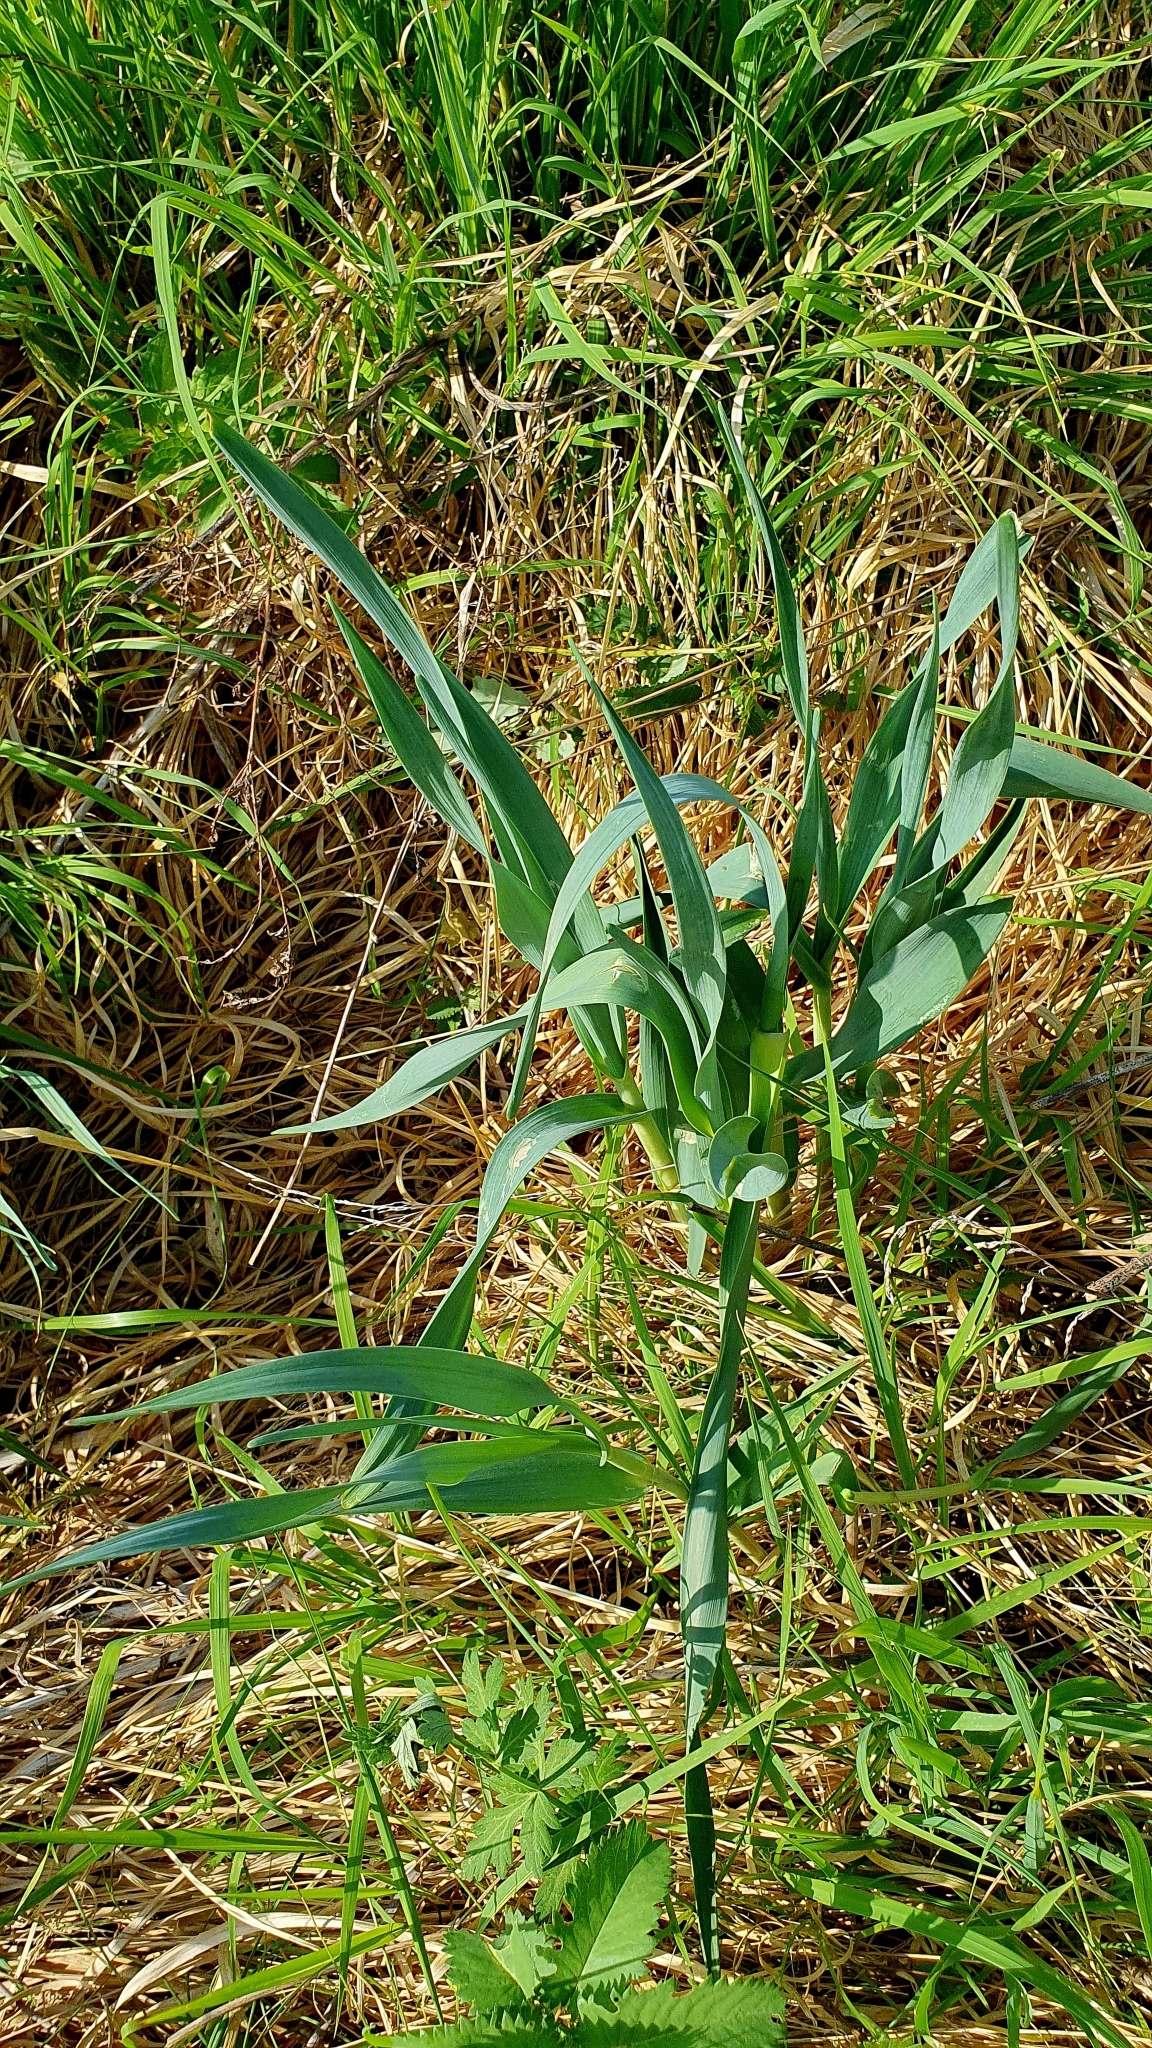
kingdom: Plantae
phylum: Tracheophyta
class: Liliopsida
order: Asparagales
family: Amaryllidaceae
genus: Allium
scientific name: Allium obliquum
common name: Oblique onion
